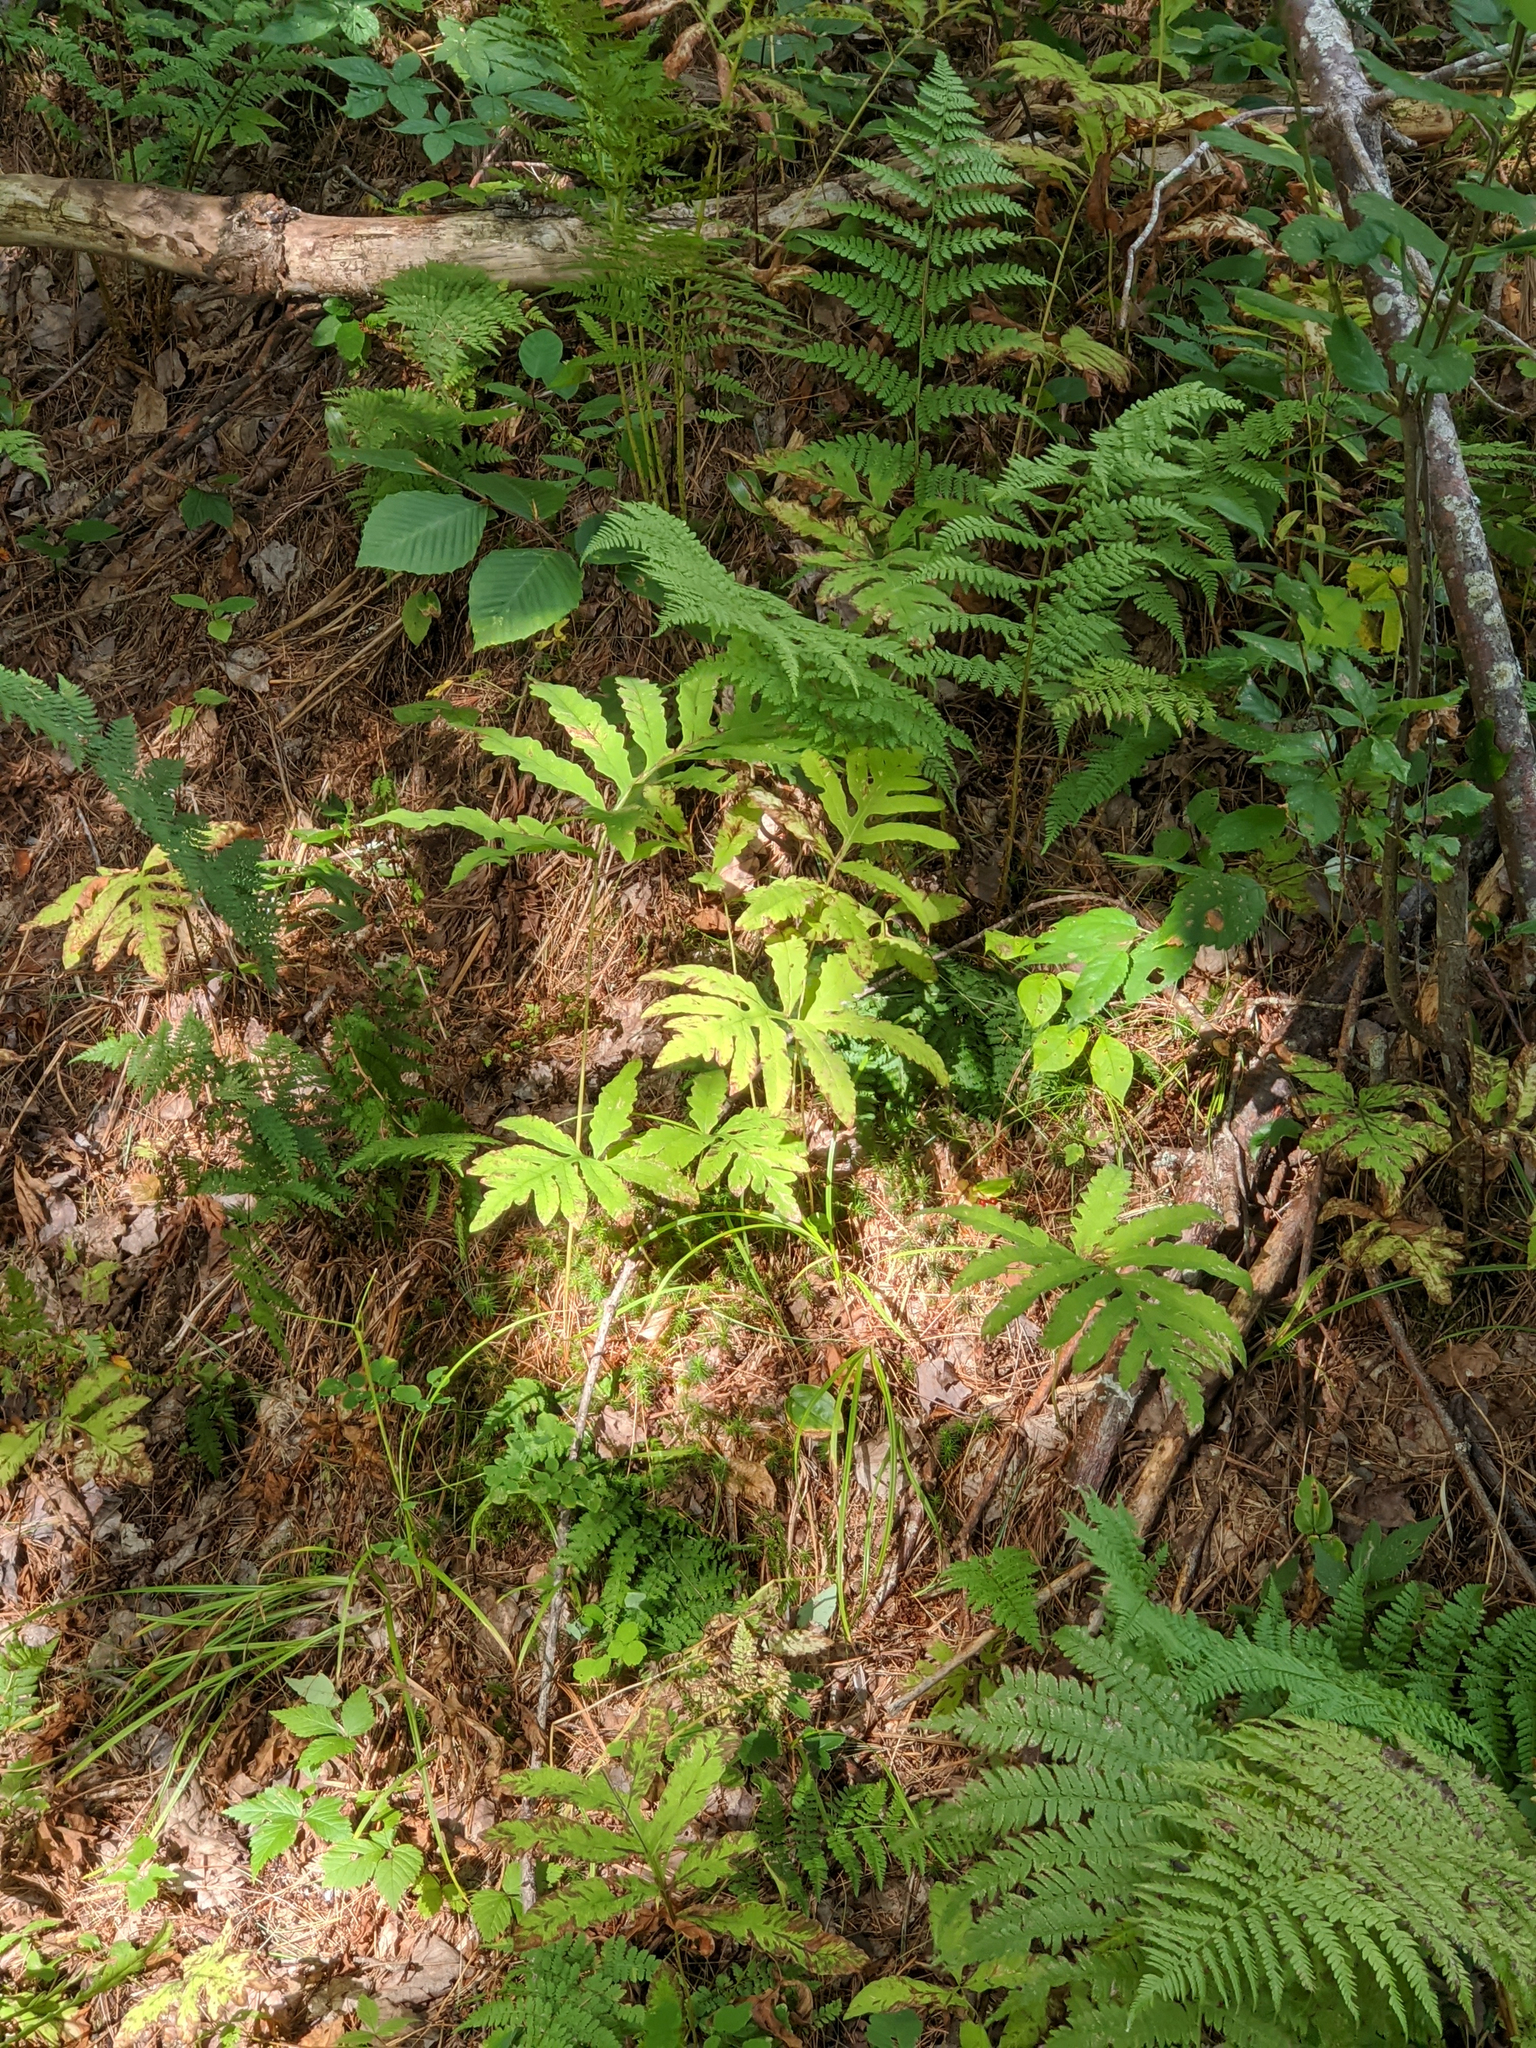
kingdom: Plantae
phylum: Tracheophyta
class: Polypodiopsida
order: Polypodiales
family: Onocleaceae
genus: Onoclea
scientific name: Onoclea sensibilis
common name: Sensitive fern
